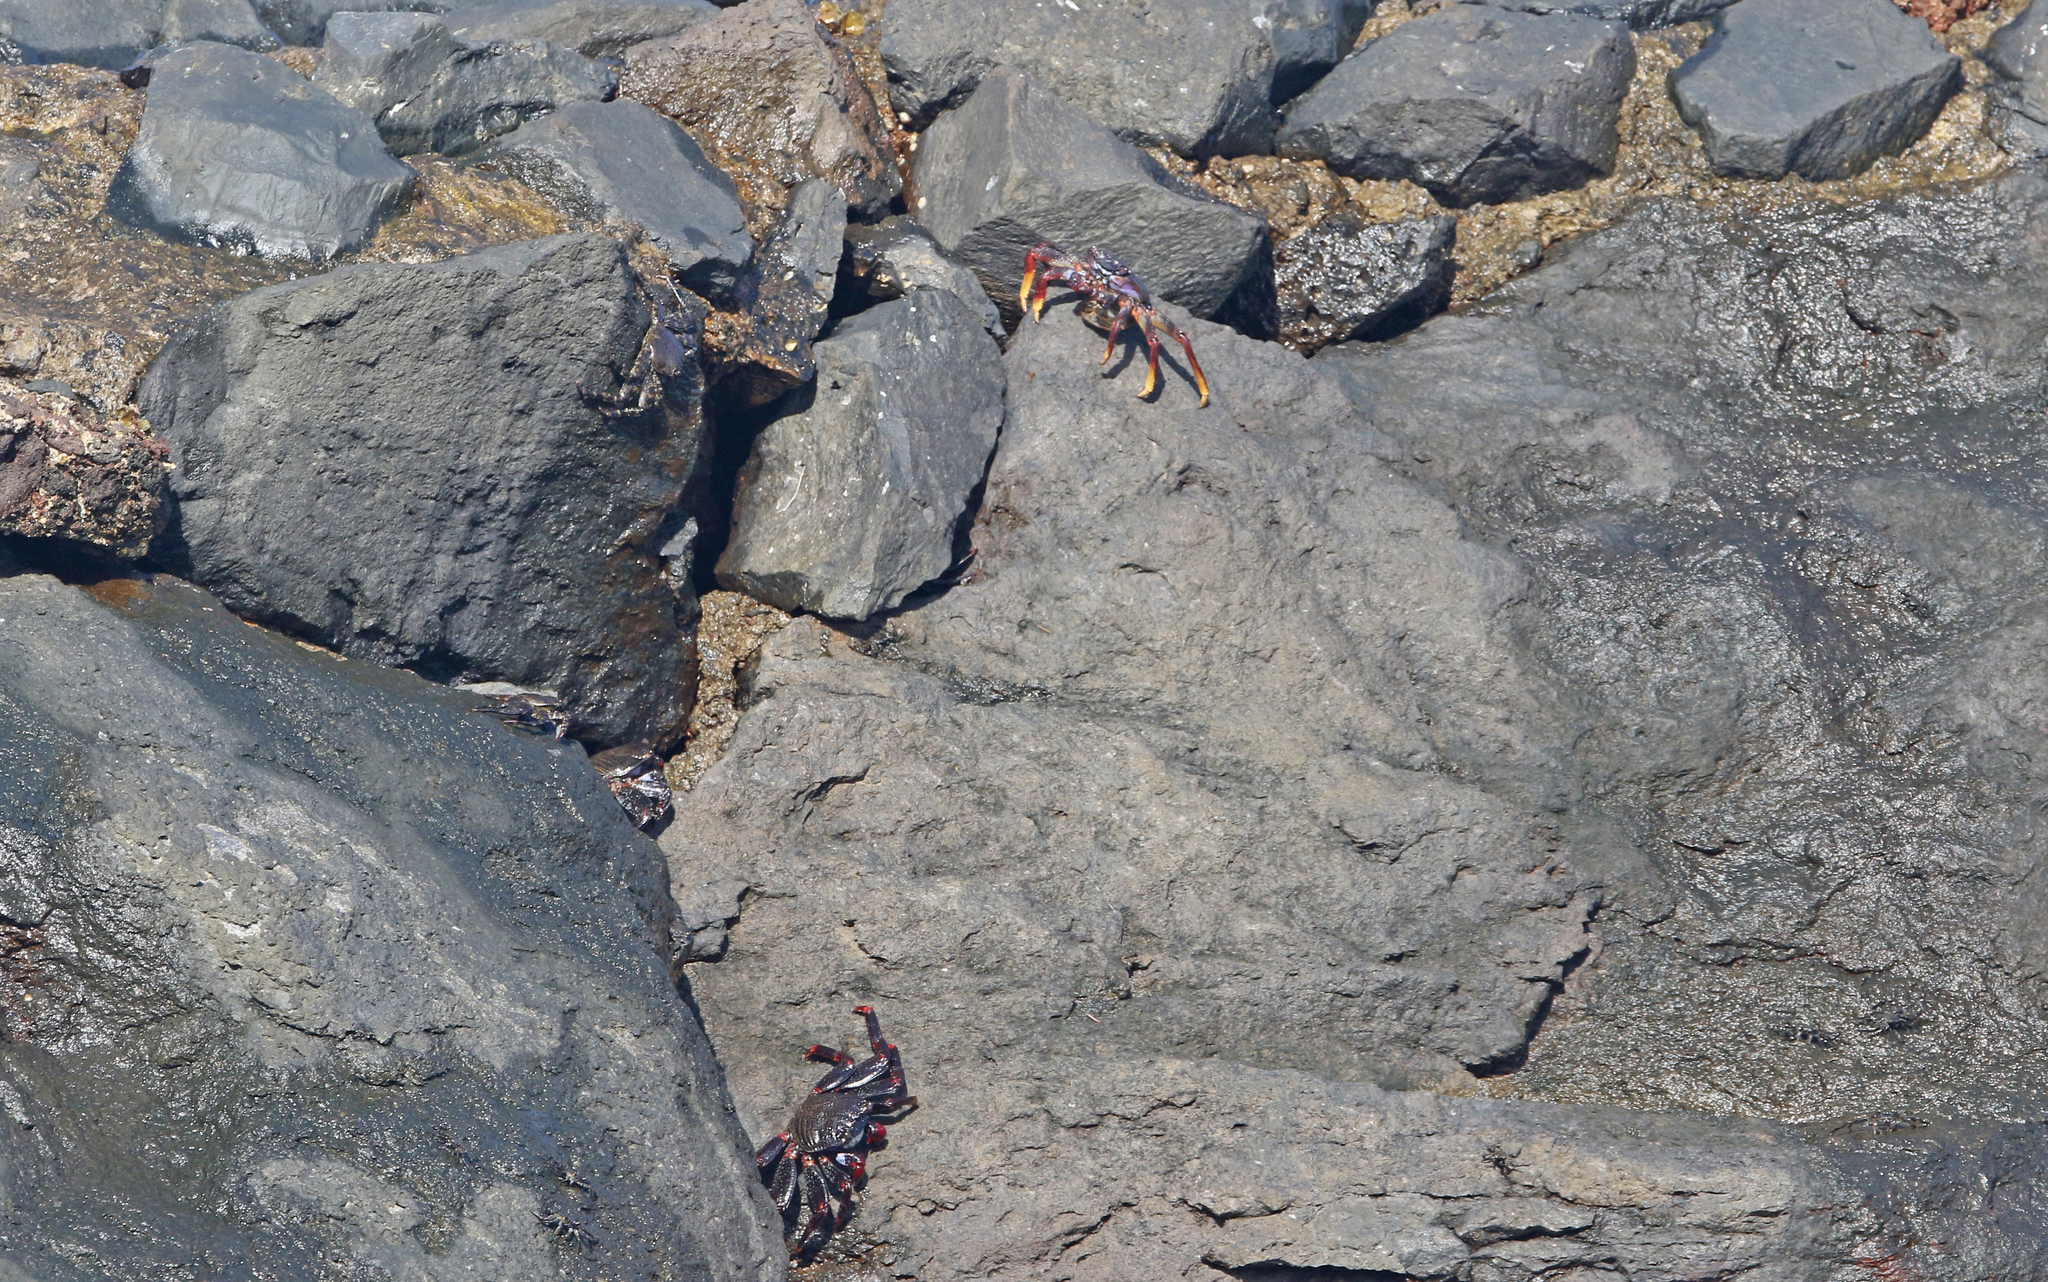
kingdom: Animalia
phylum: Arthropoda
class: Malacostraca
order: Decapoda
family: Grapsidae
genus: Grapsus
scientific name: Grapsus adscensionis
